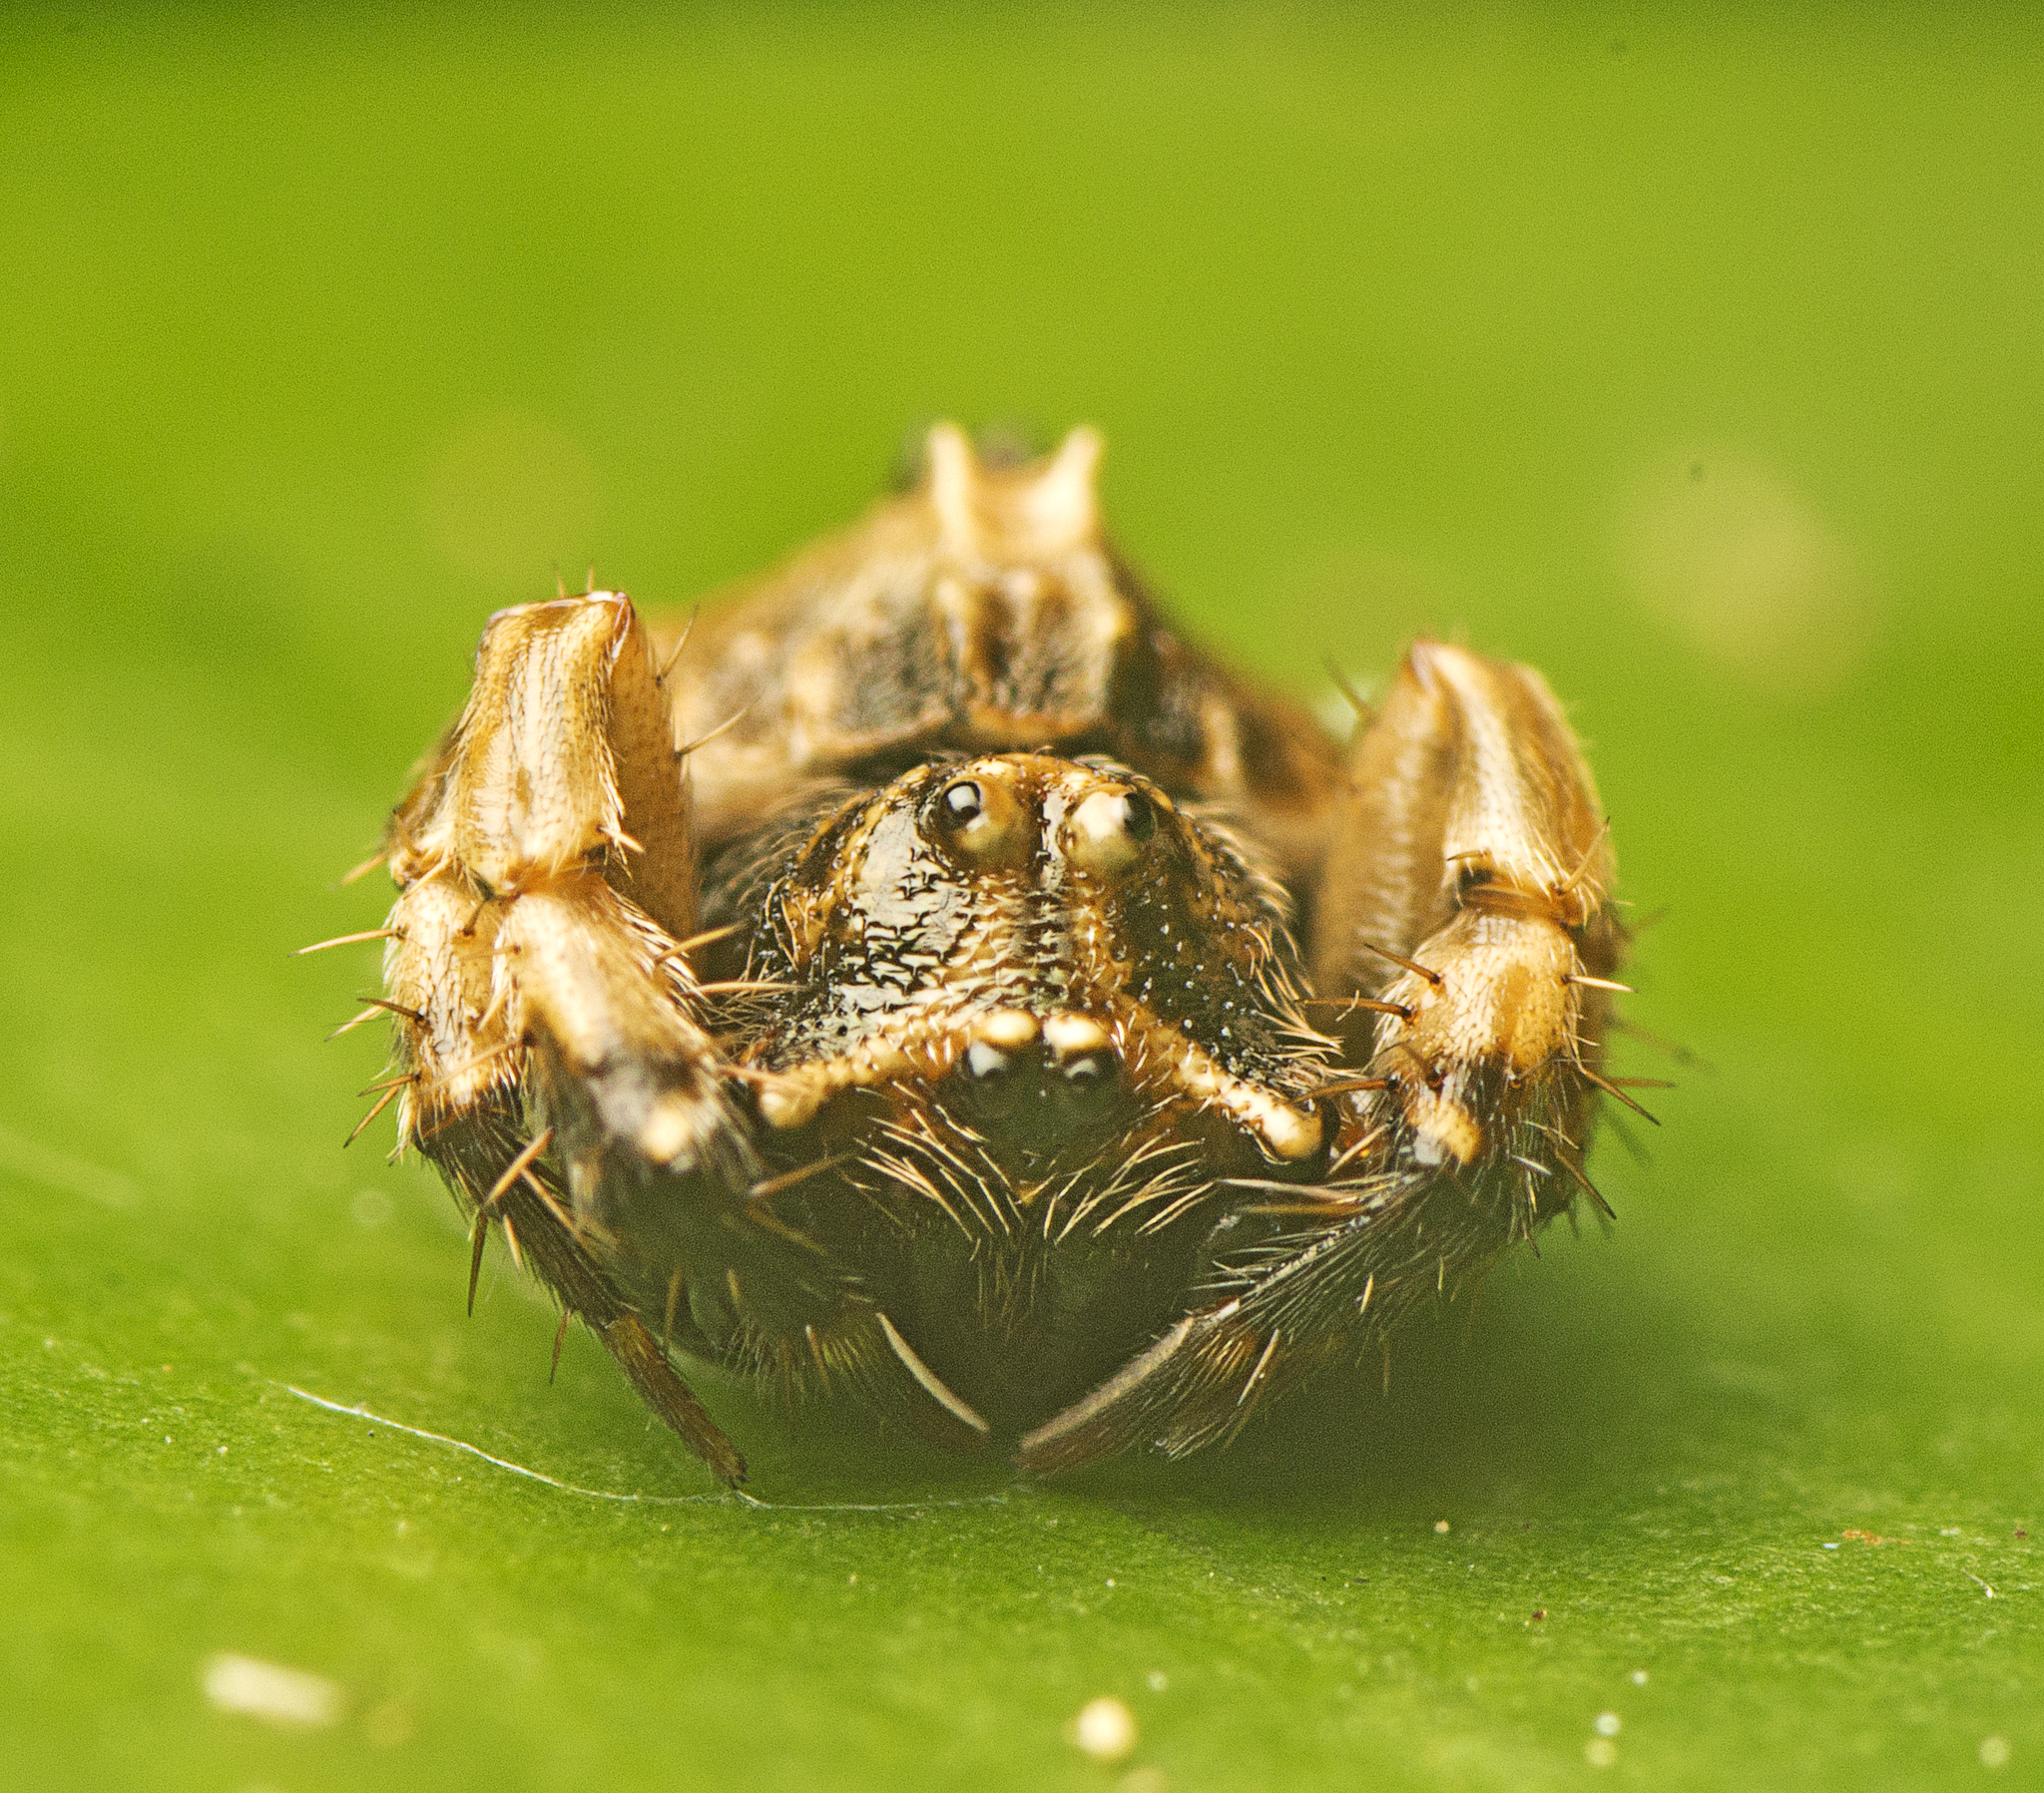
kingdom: Animalia
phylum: Arthropoda
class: Arachnida
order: Araneae
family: Arkyidae
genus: Arkys
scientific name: Arkys tuberculatus
